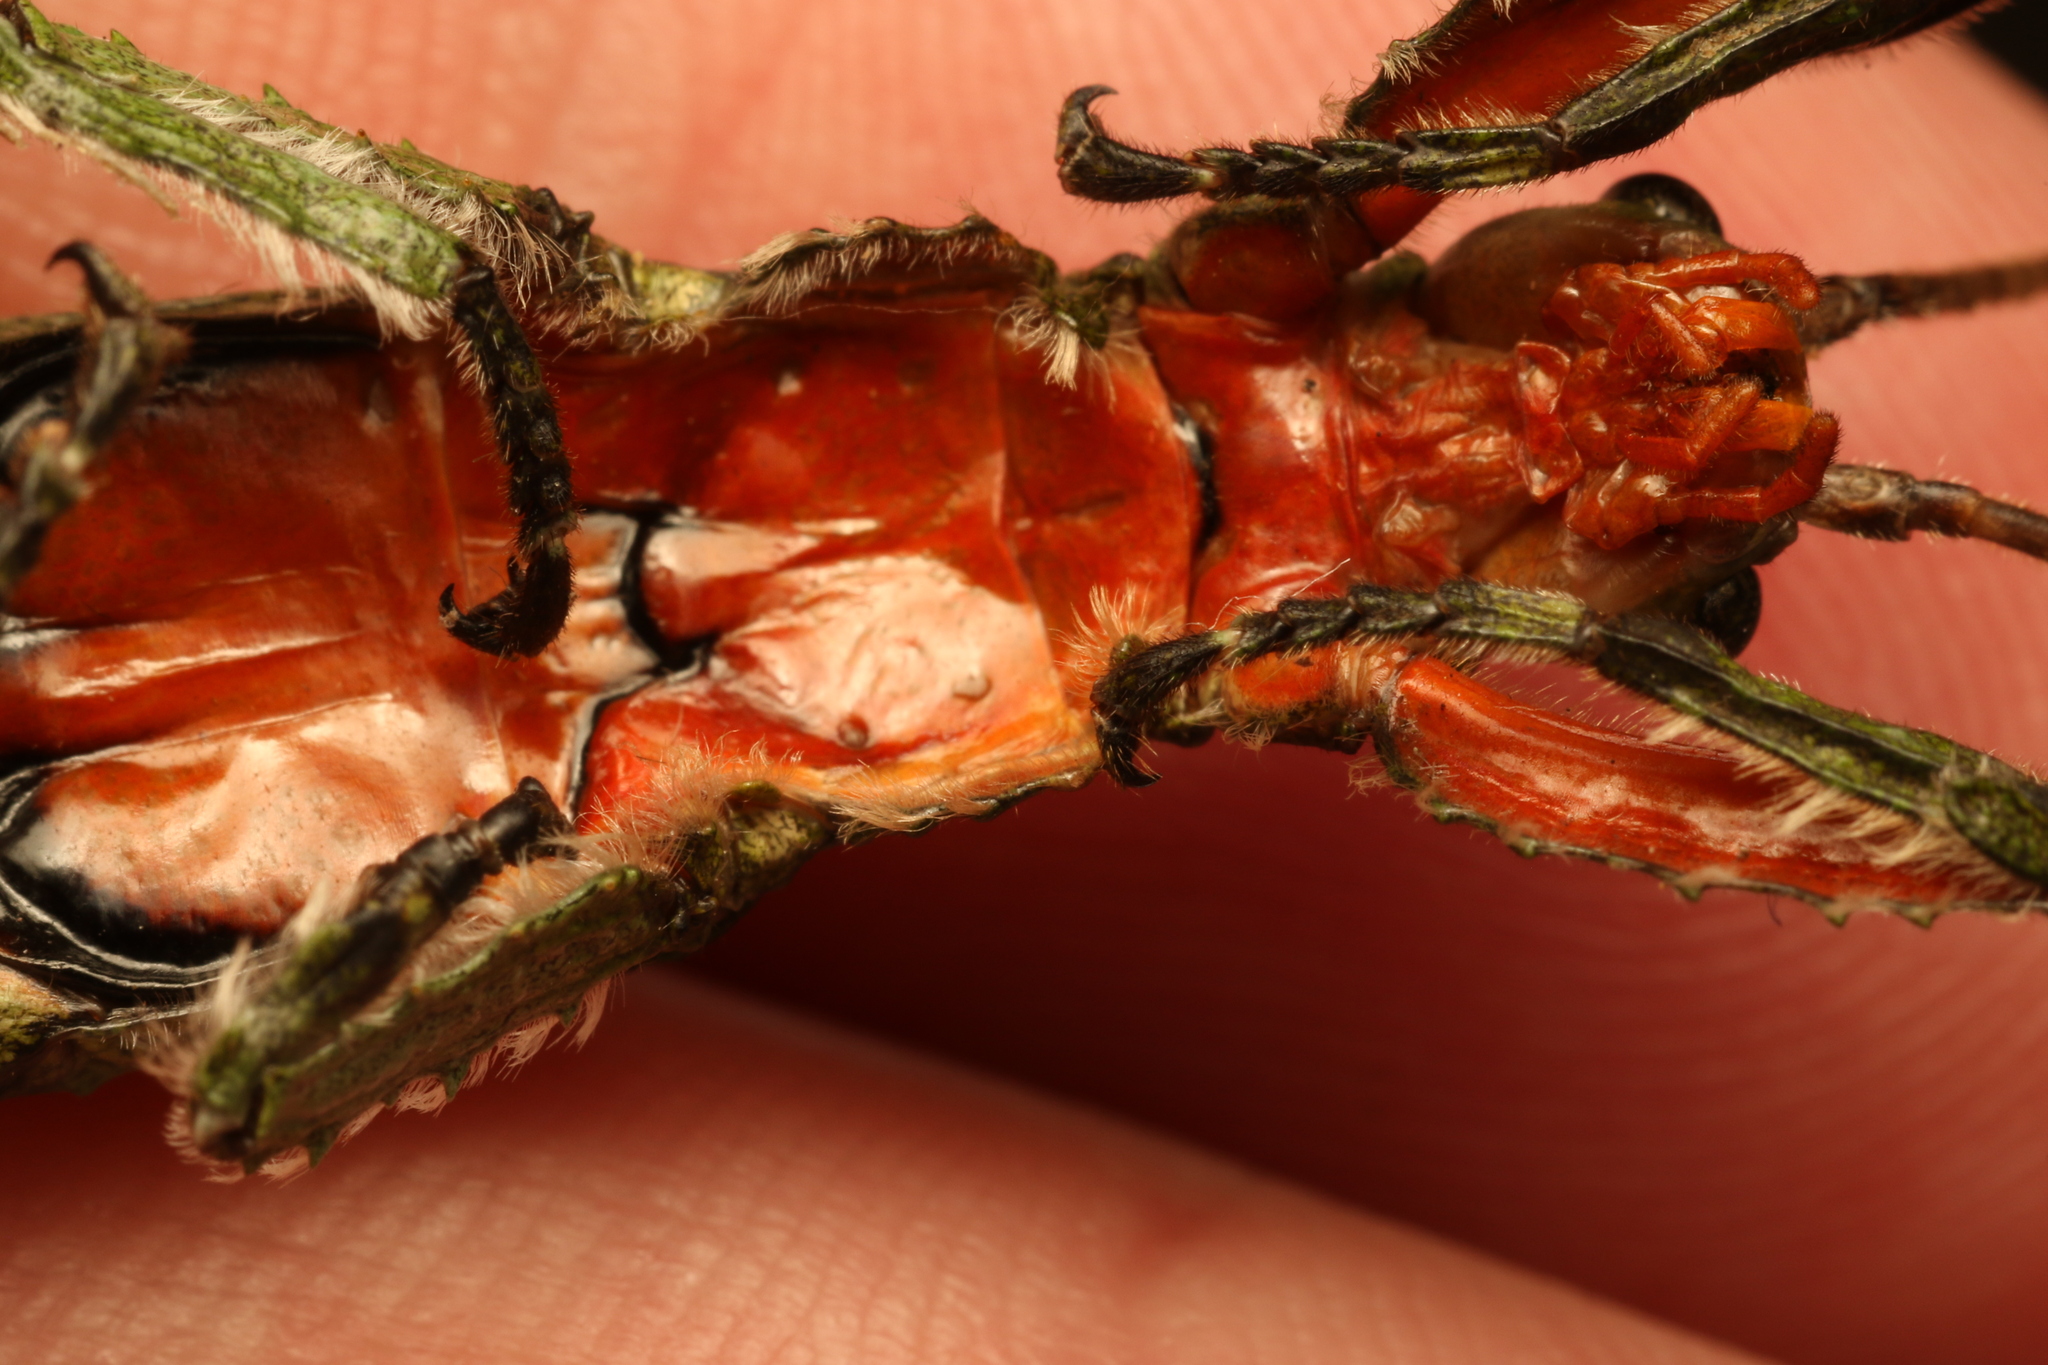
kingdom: Animalia
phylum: Arthropoda
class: Insecta
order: Phasmida
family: Prisopodidae
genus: Prisopus
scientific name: Prisopus sacratus
